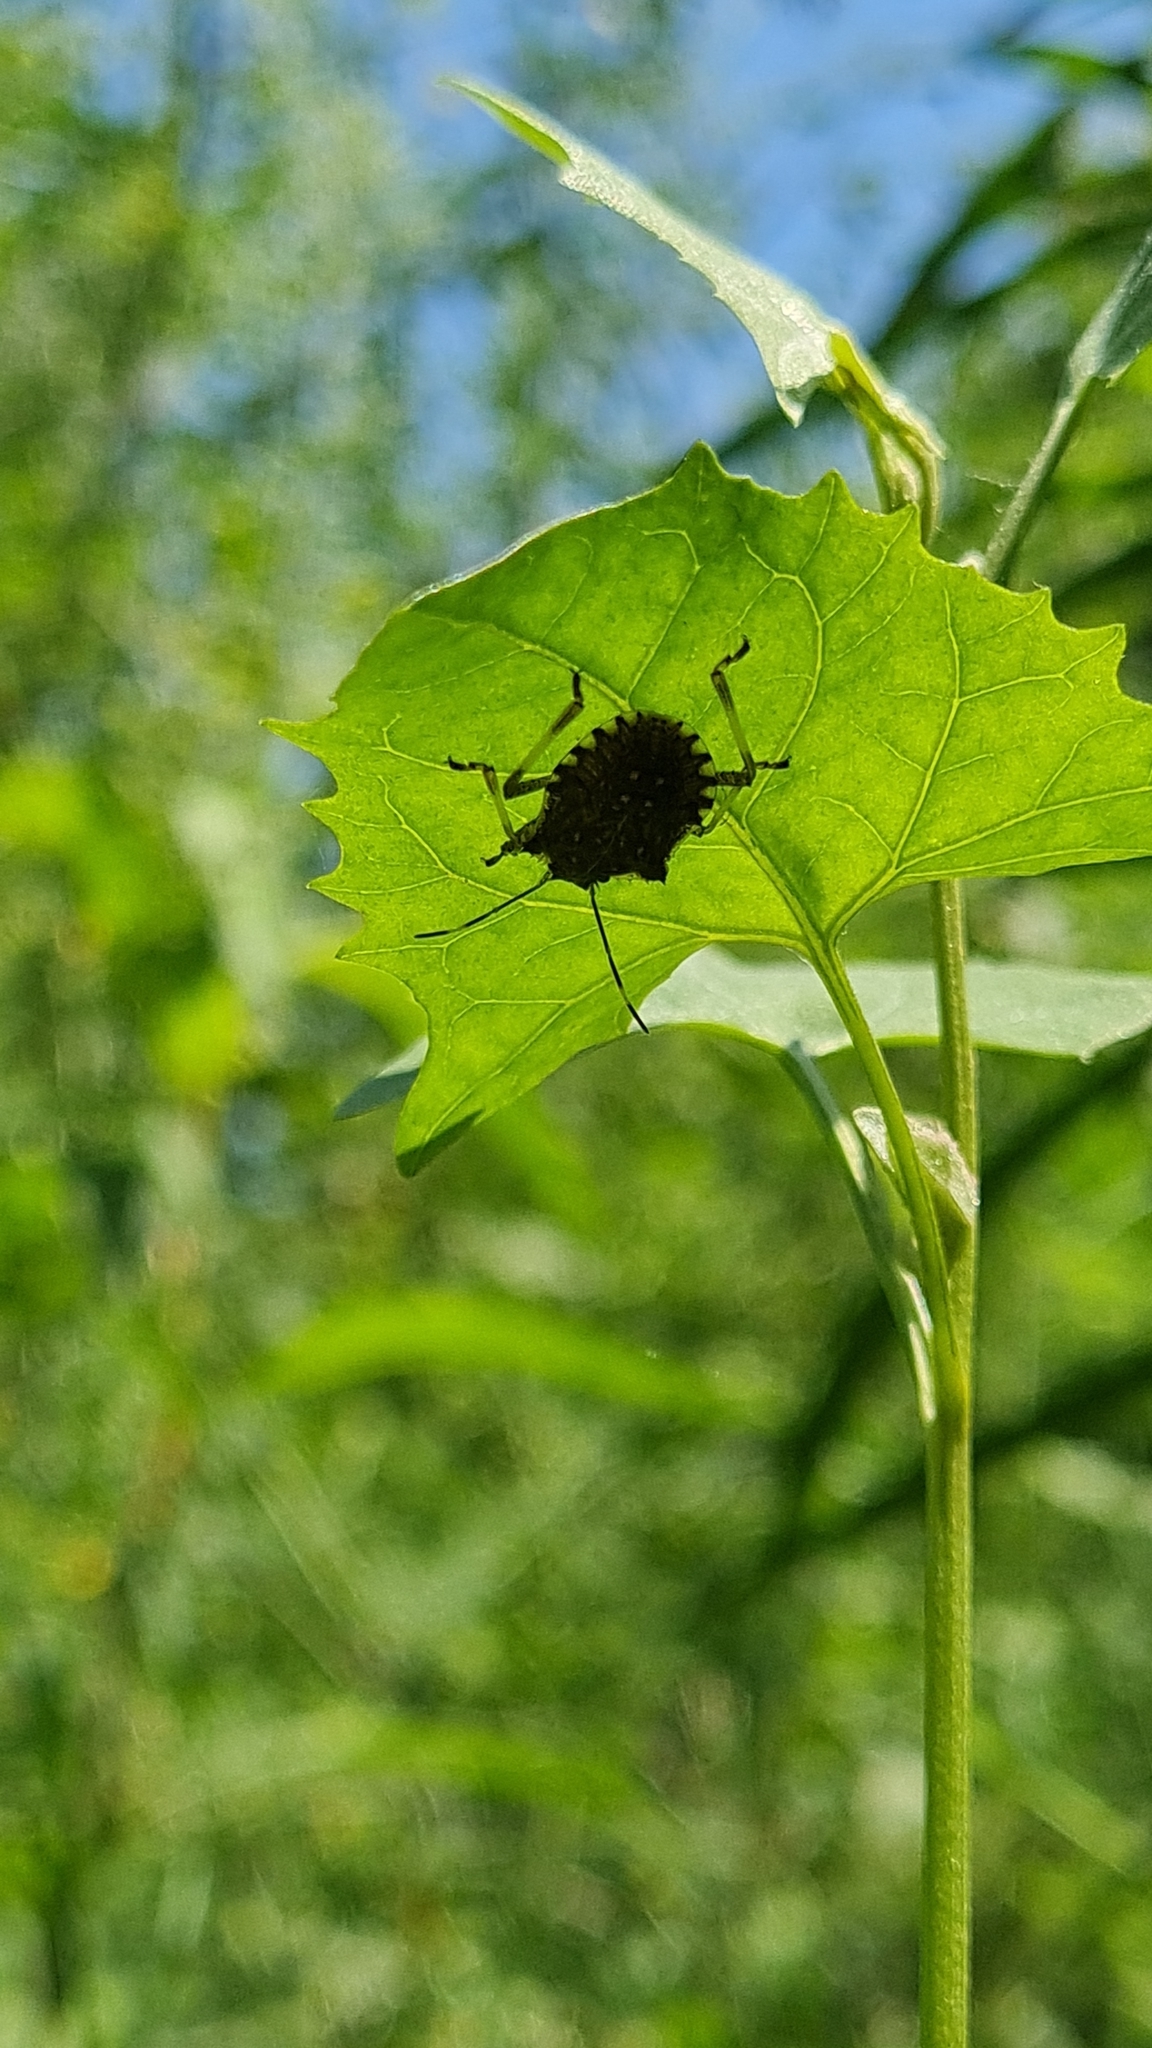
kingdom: Animalia
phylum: Arthropoda
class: Insecta
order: Hemiptera
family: Pentatomidae
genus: Halyomorpha
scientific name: Halyomorpha halys
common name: Brown marmorated stink bug
